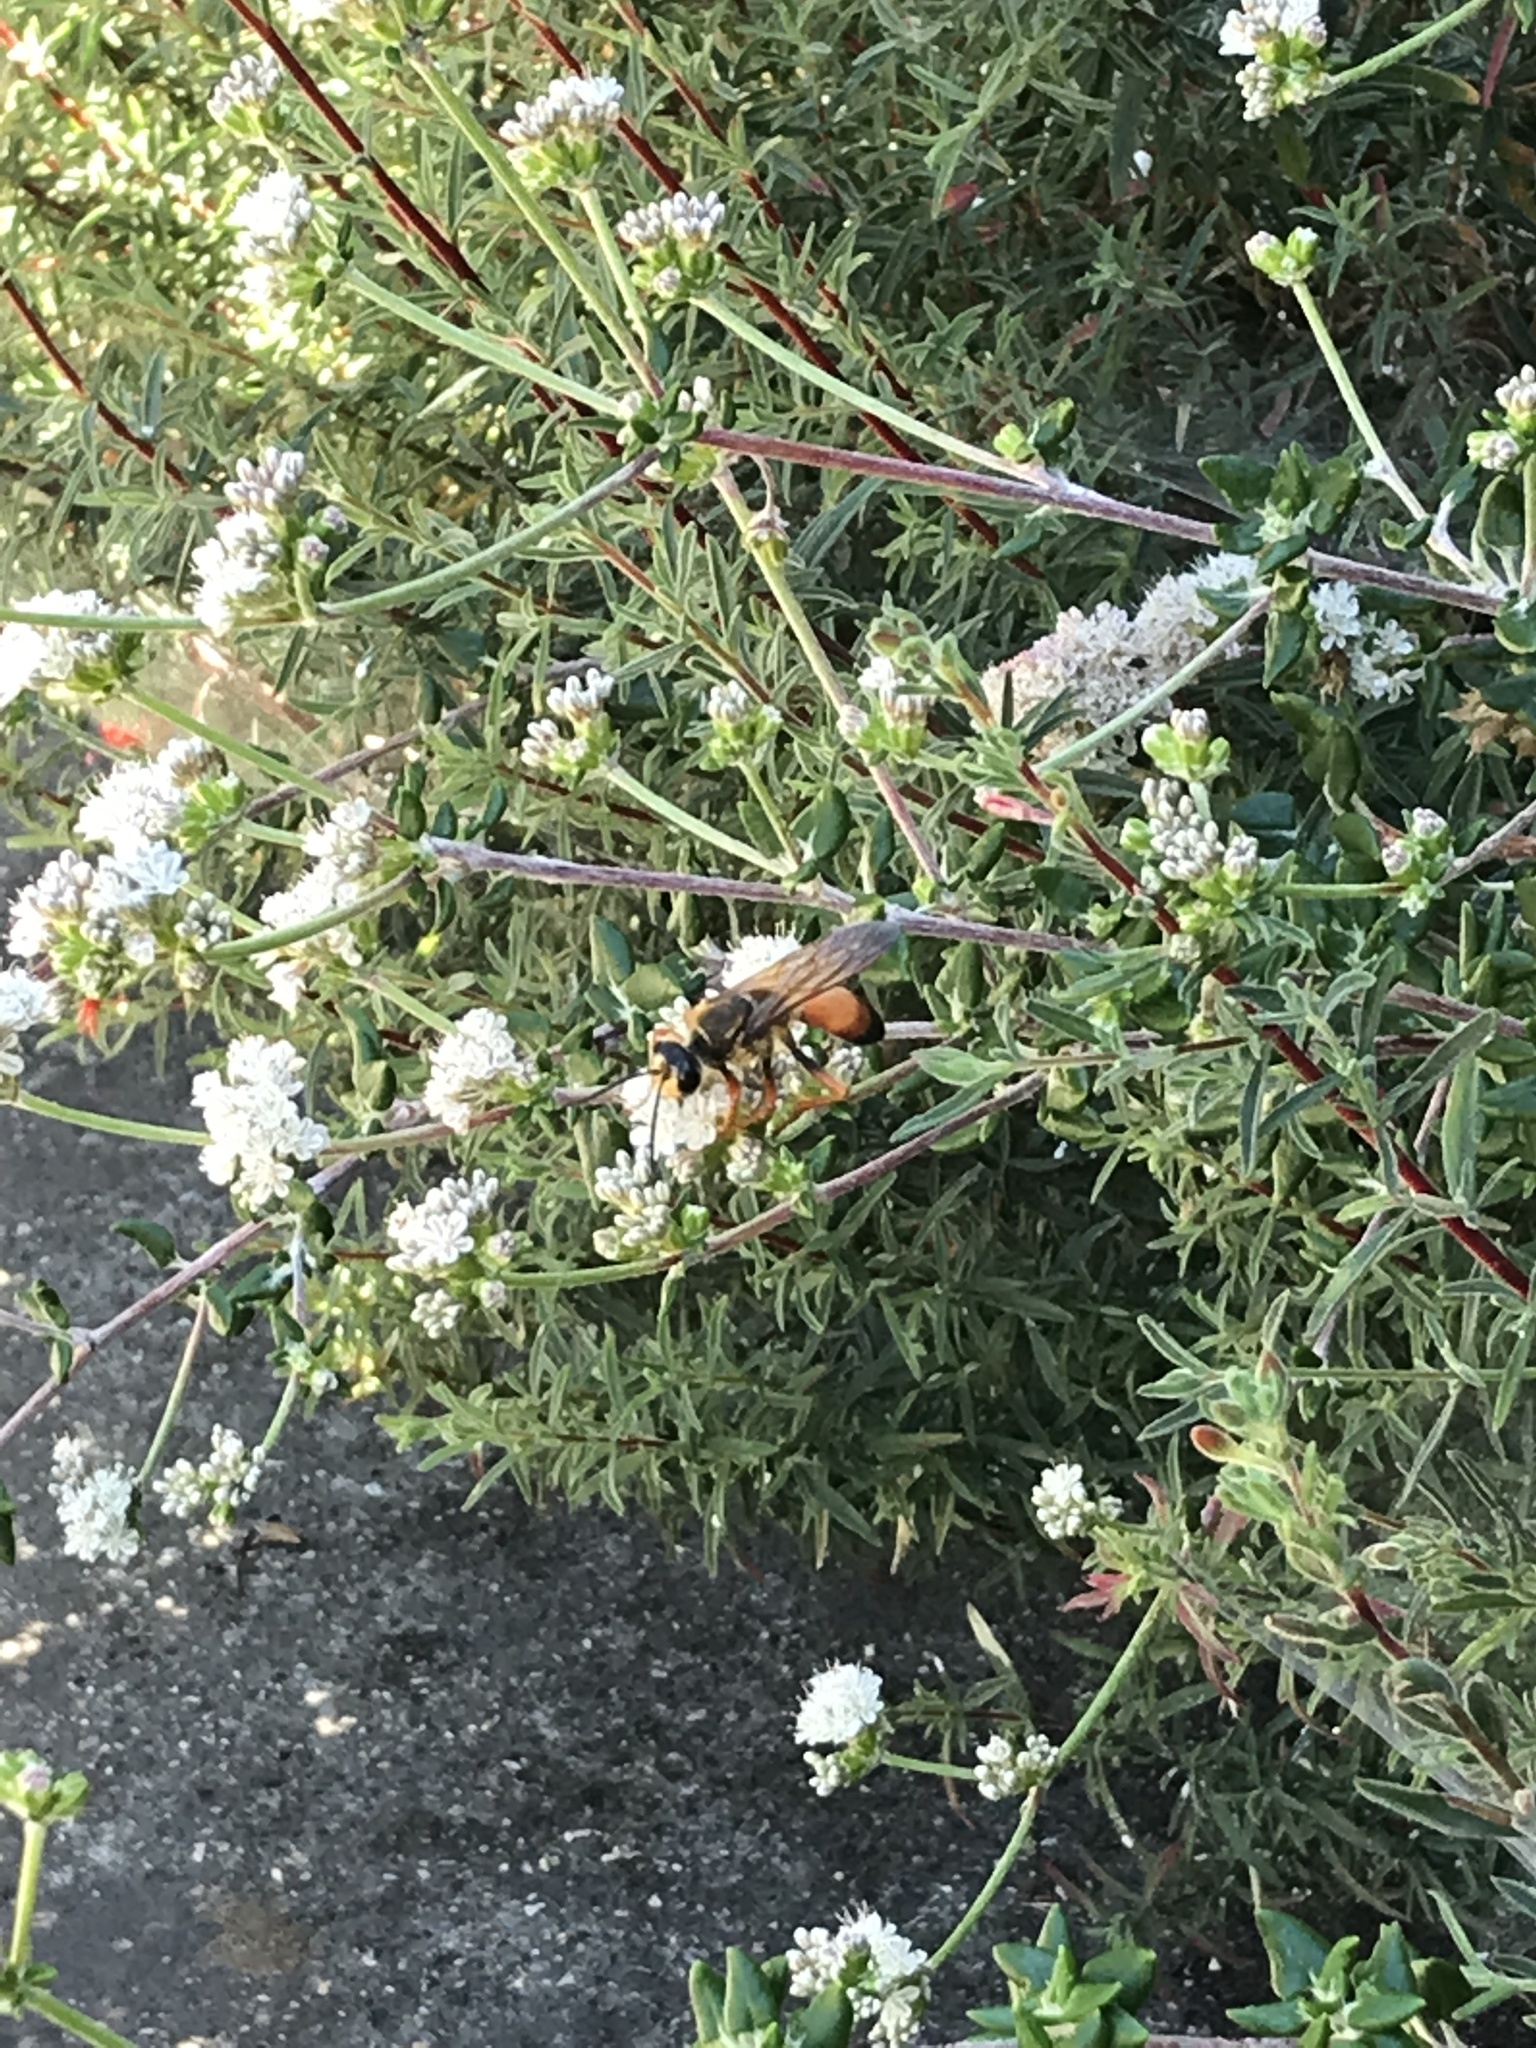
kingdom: Animalia
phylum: Arthropoda
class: Insecta
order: Hymenoptera
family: Sphecidae
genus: Sphex
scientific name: Sphex ichneumoneus
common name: Great golden digger wasp
